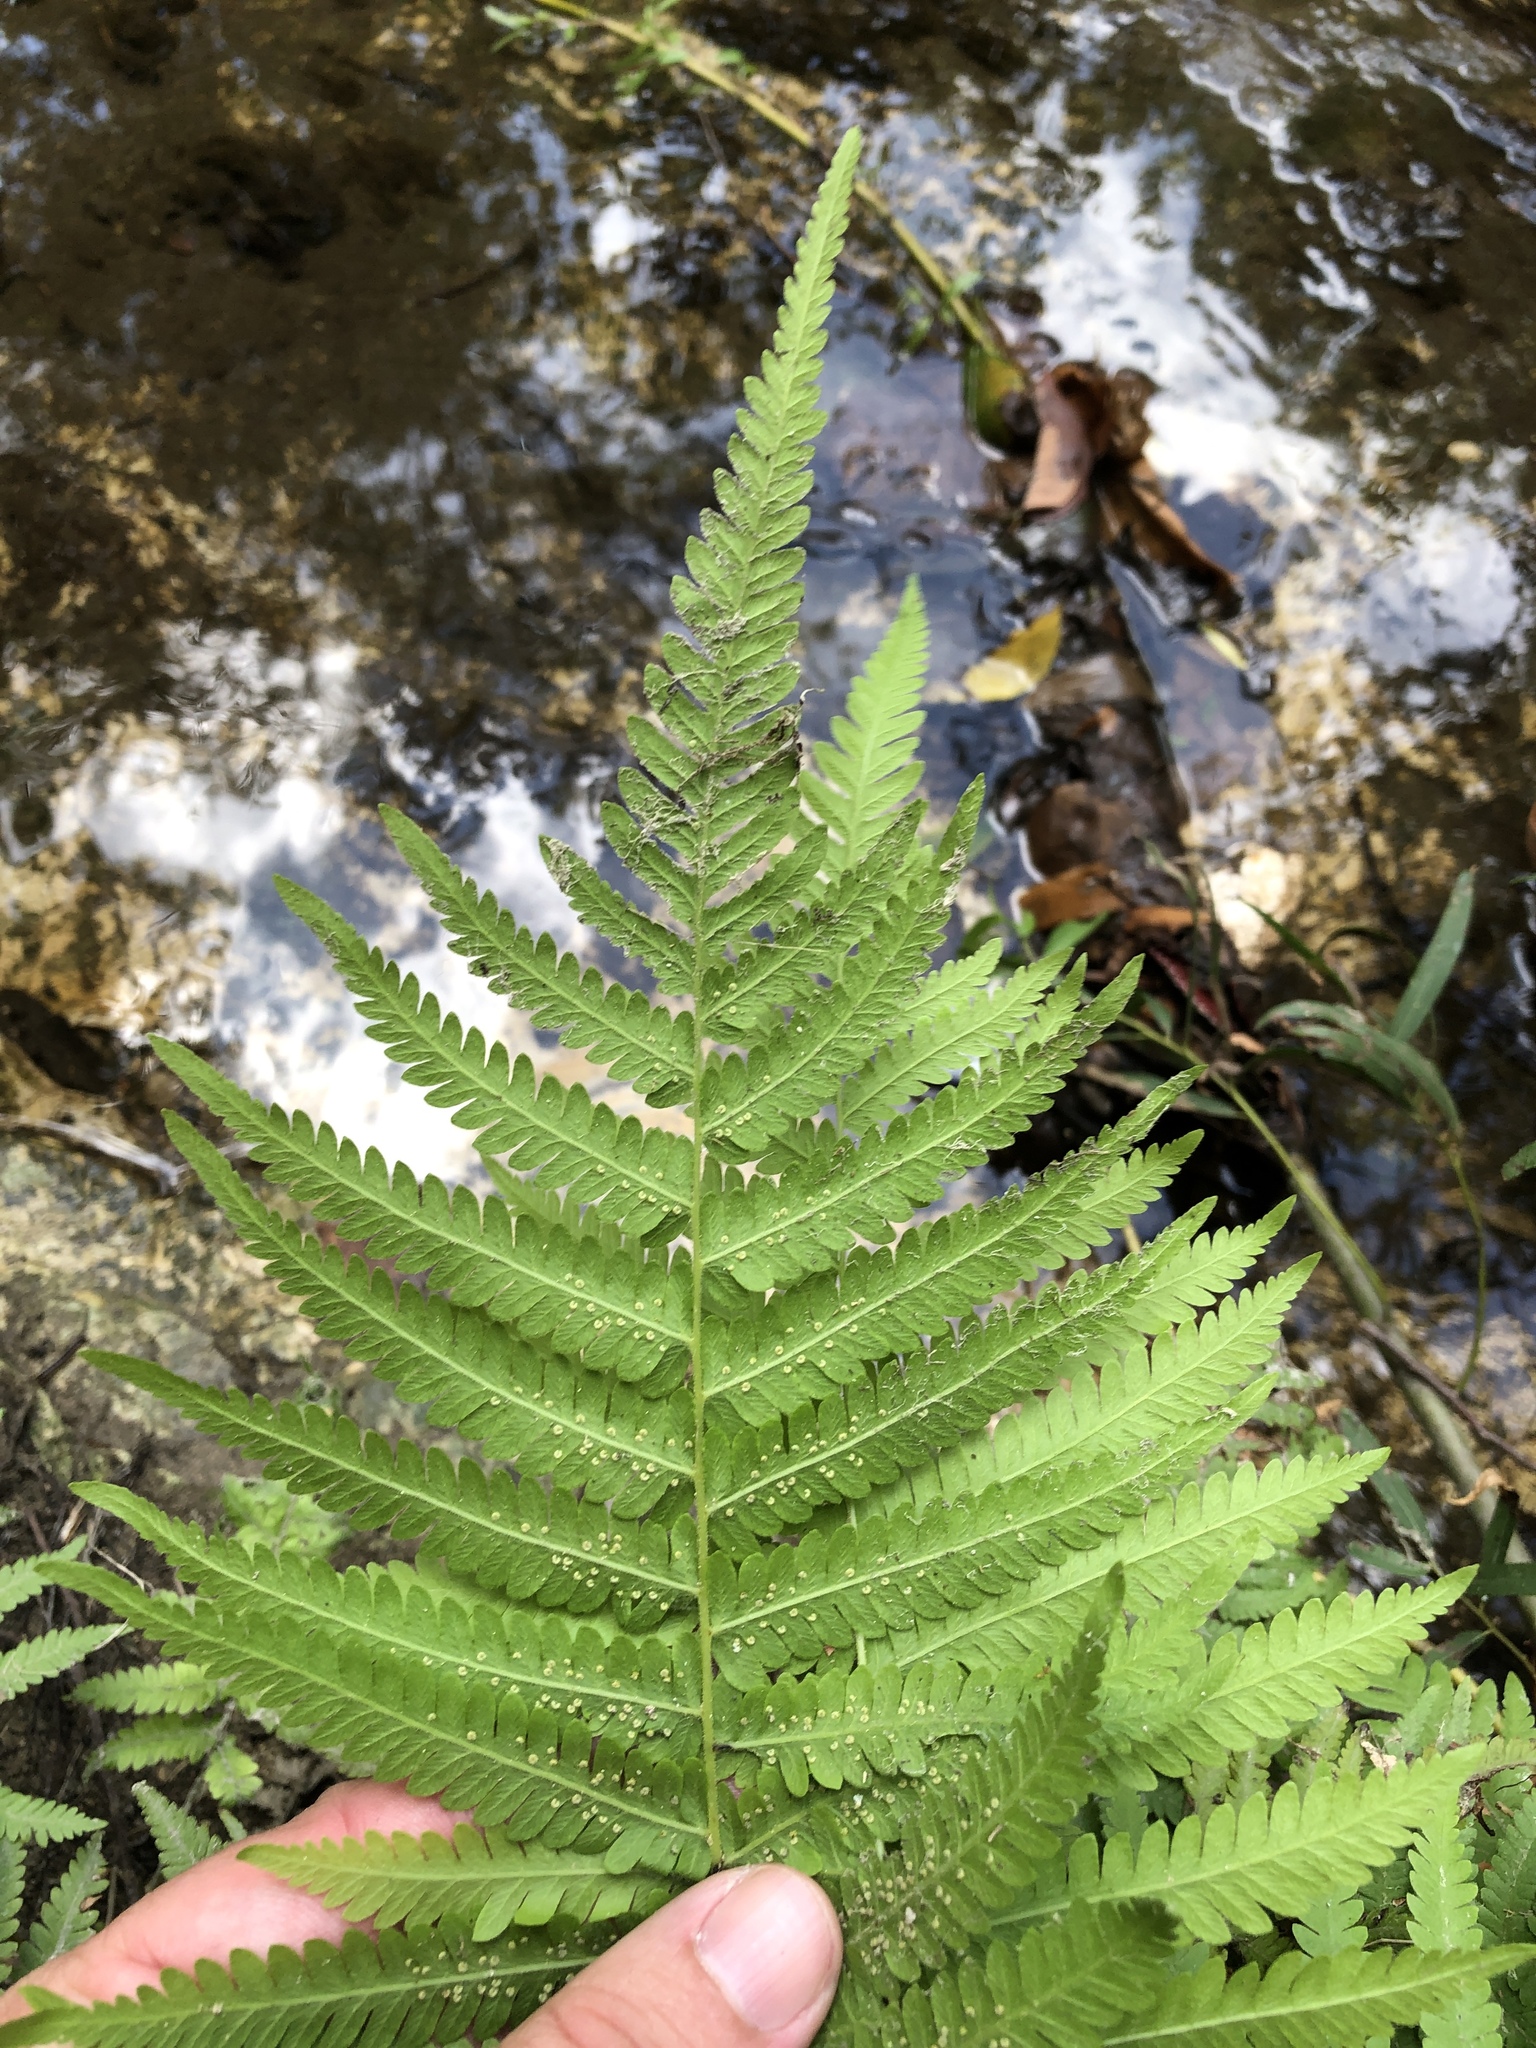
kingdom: Plantae
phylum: Tracheophyta
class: Polypodiopsida
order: Polypodiales
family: Thelypteridaceae
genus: Pelazoneuron
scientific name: Pelazoneuron kunthii
